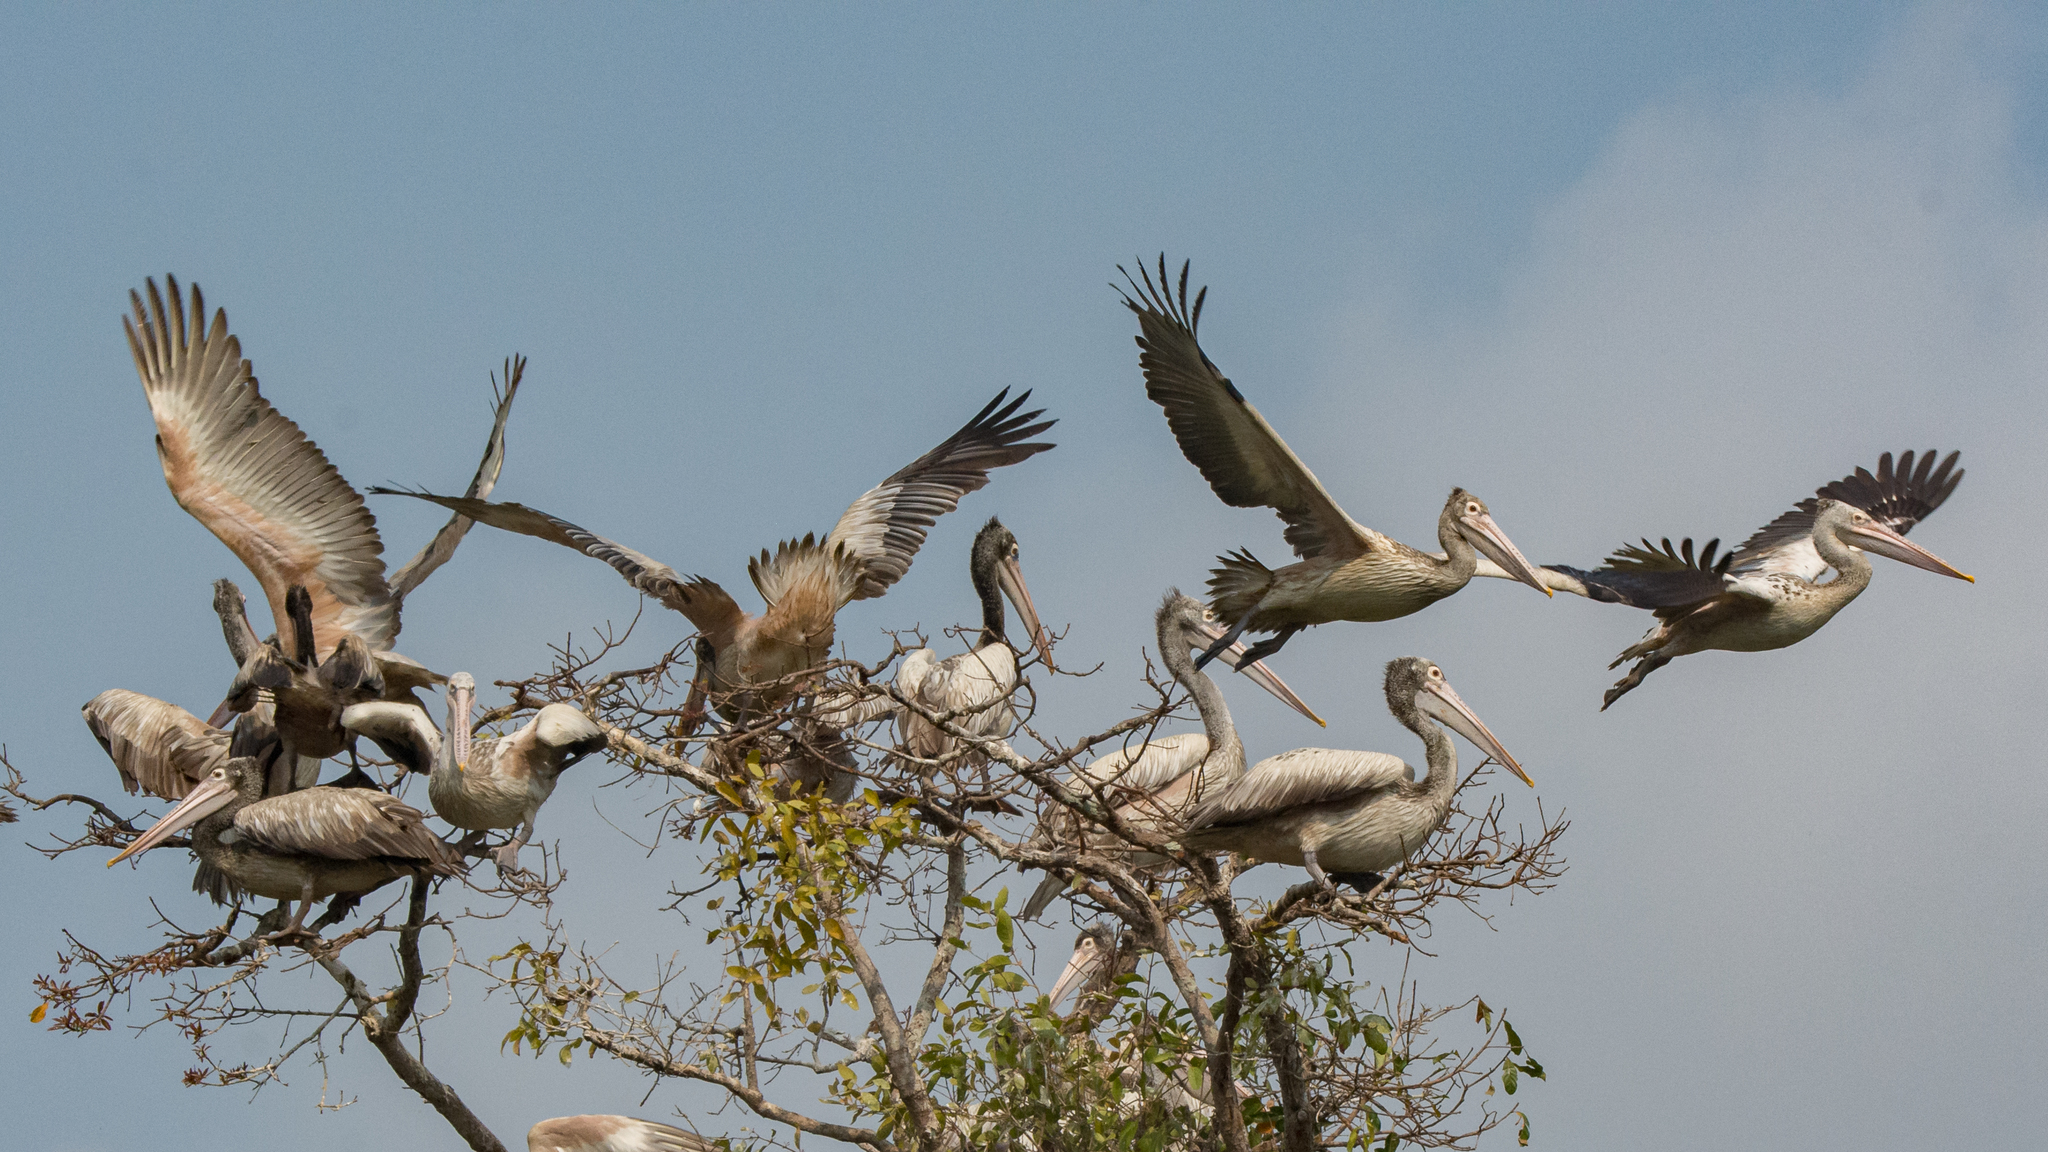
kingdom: Animalia
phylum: Chordata
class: Aves
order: Pelecaniformes
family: Pelecanidae
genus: Pelecanus
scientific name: Pelecanus philippensis
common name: Spot-billed pelican
